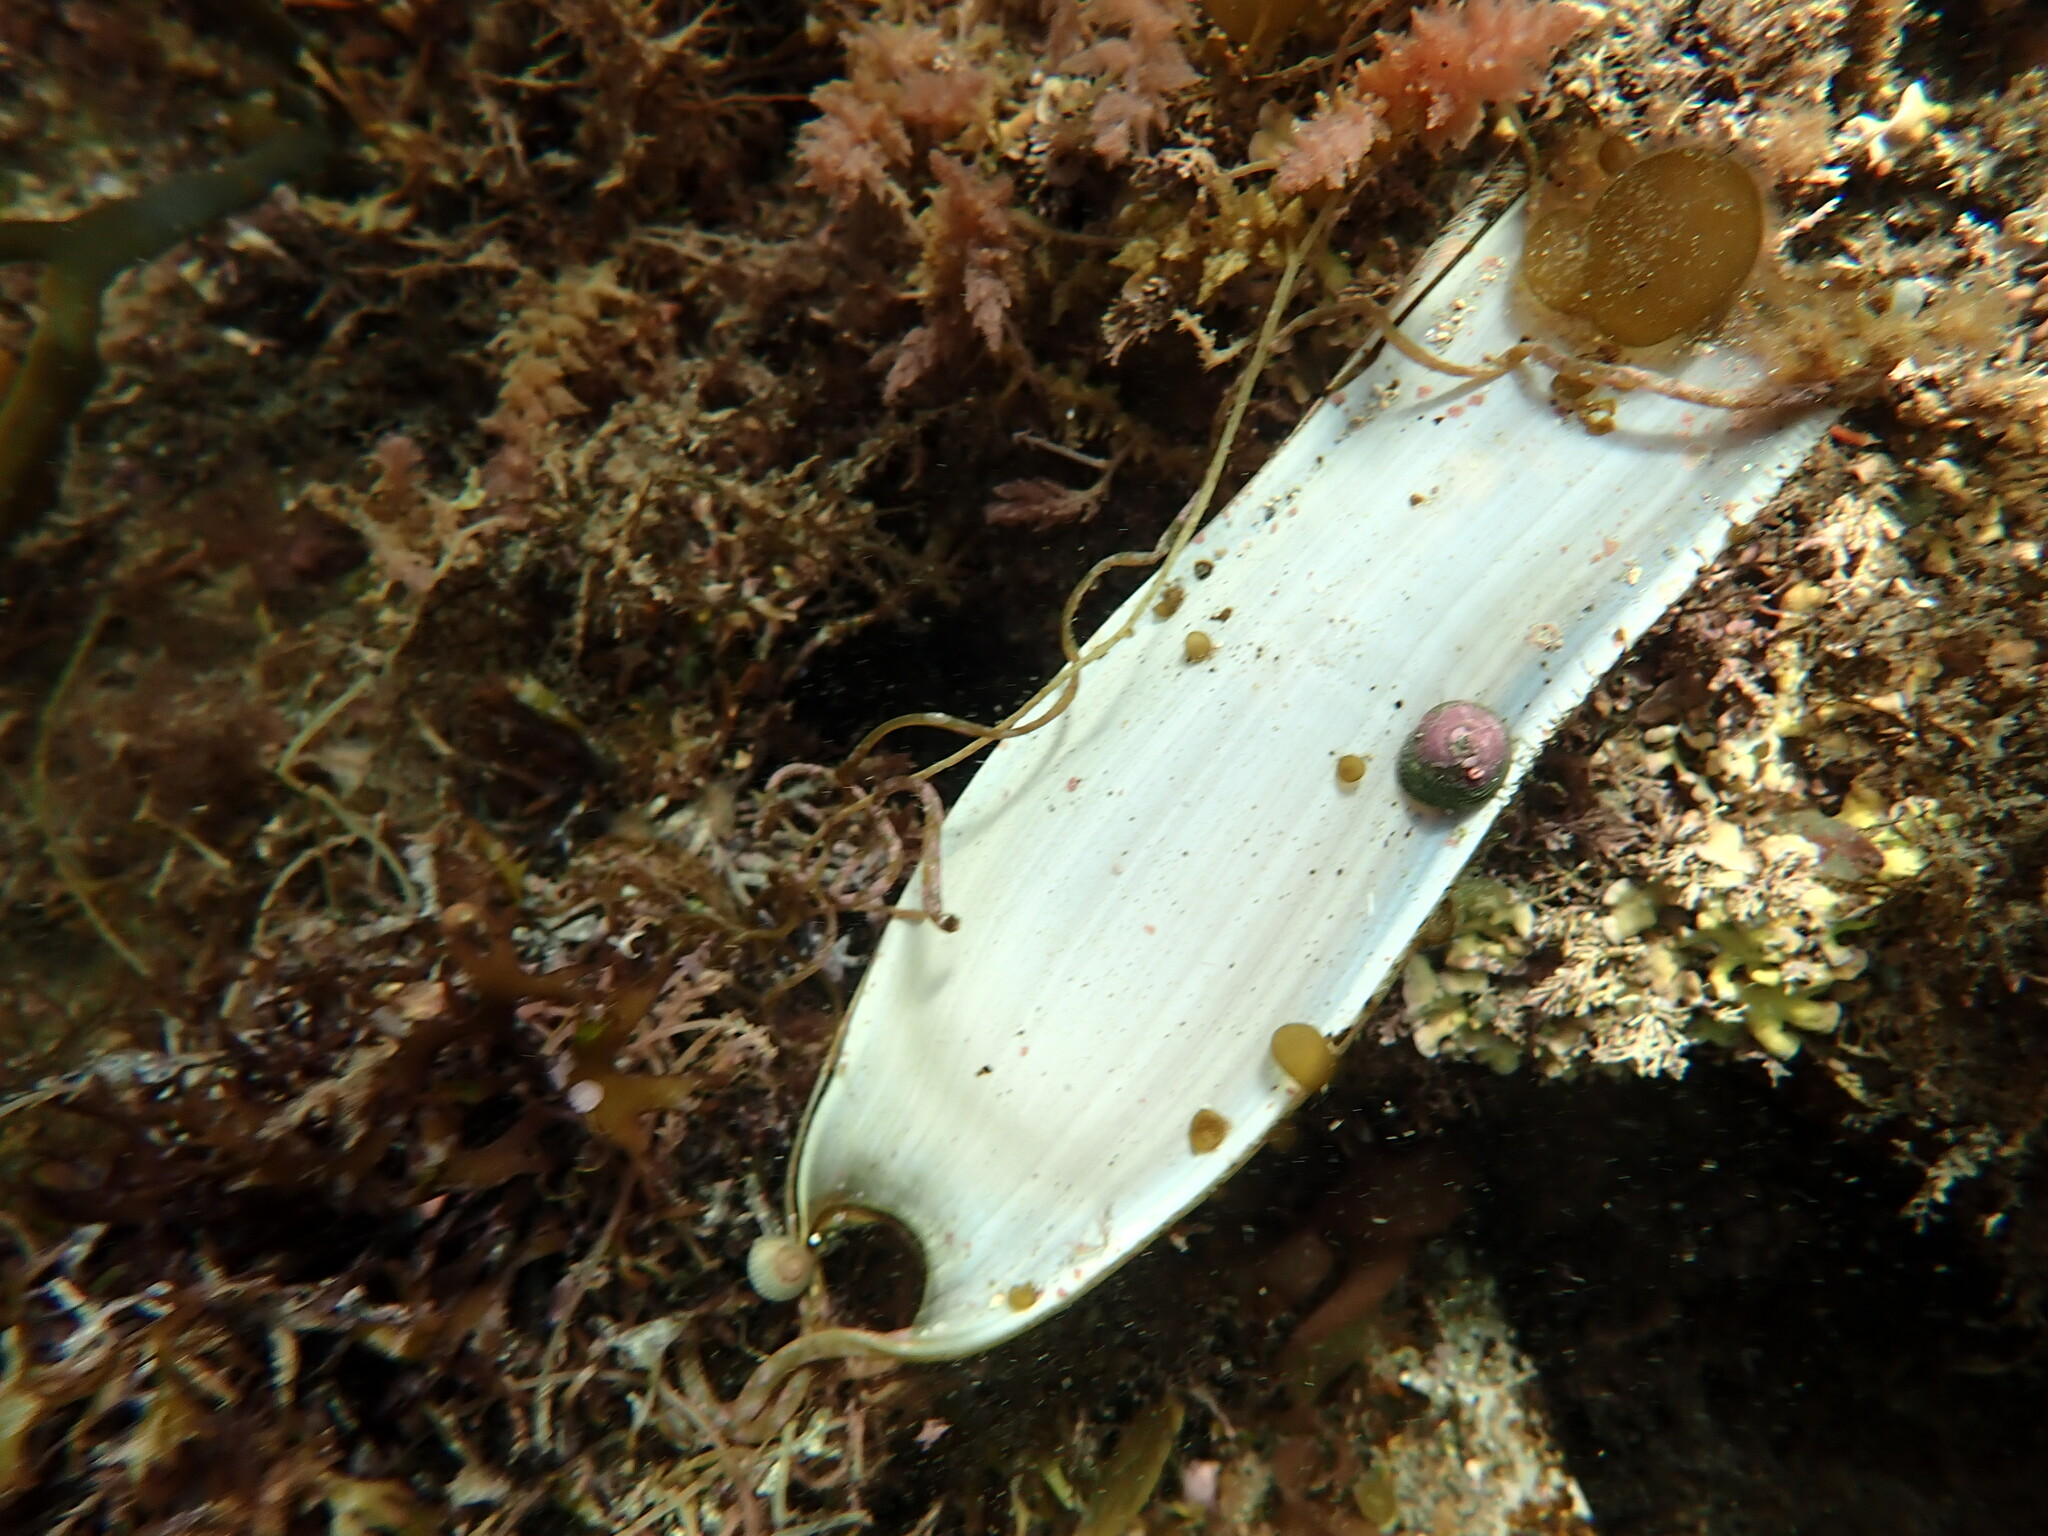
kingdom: Animalia
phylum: Chordata
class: Elasmobranchii
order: Carcharhiniformes
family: Scyliorhinidae
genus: Scyliorhinus
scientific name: Scyliorhinus stellaris
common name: Nursehound
